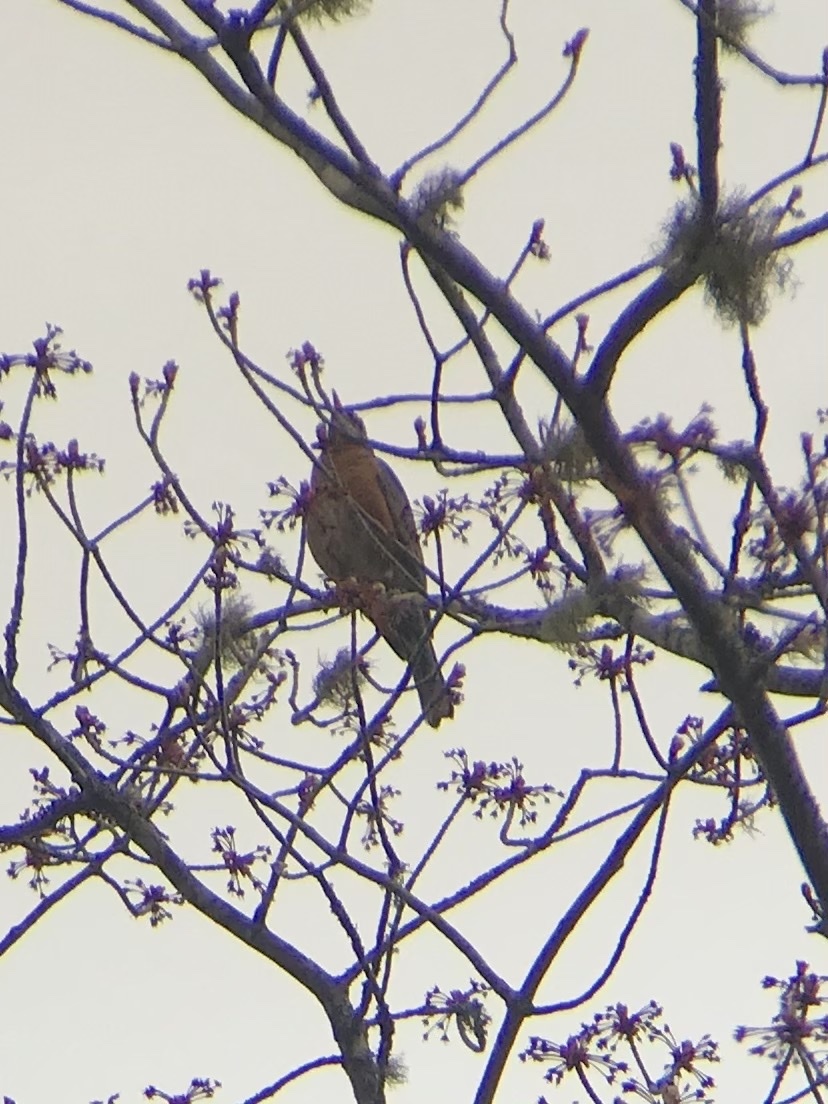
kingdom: Animalia
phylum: Chordata
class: Aves
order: Passeriformes
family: Turdidae
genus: Turdus
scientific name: Turdus migratorius
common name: American robin
